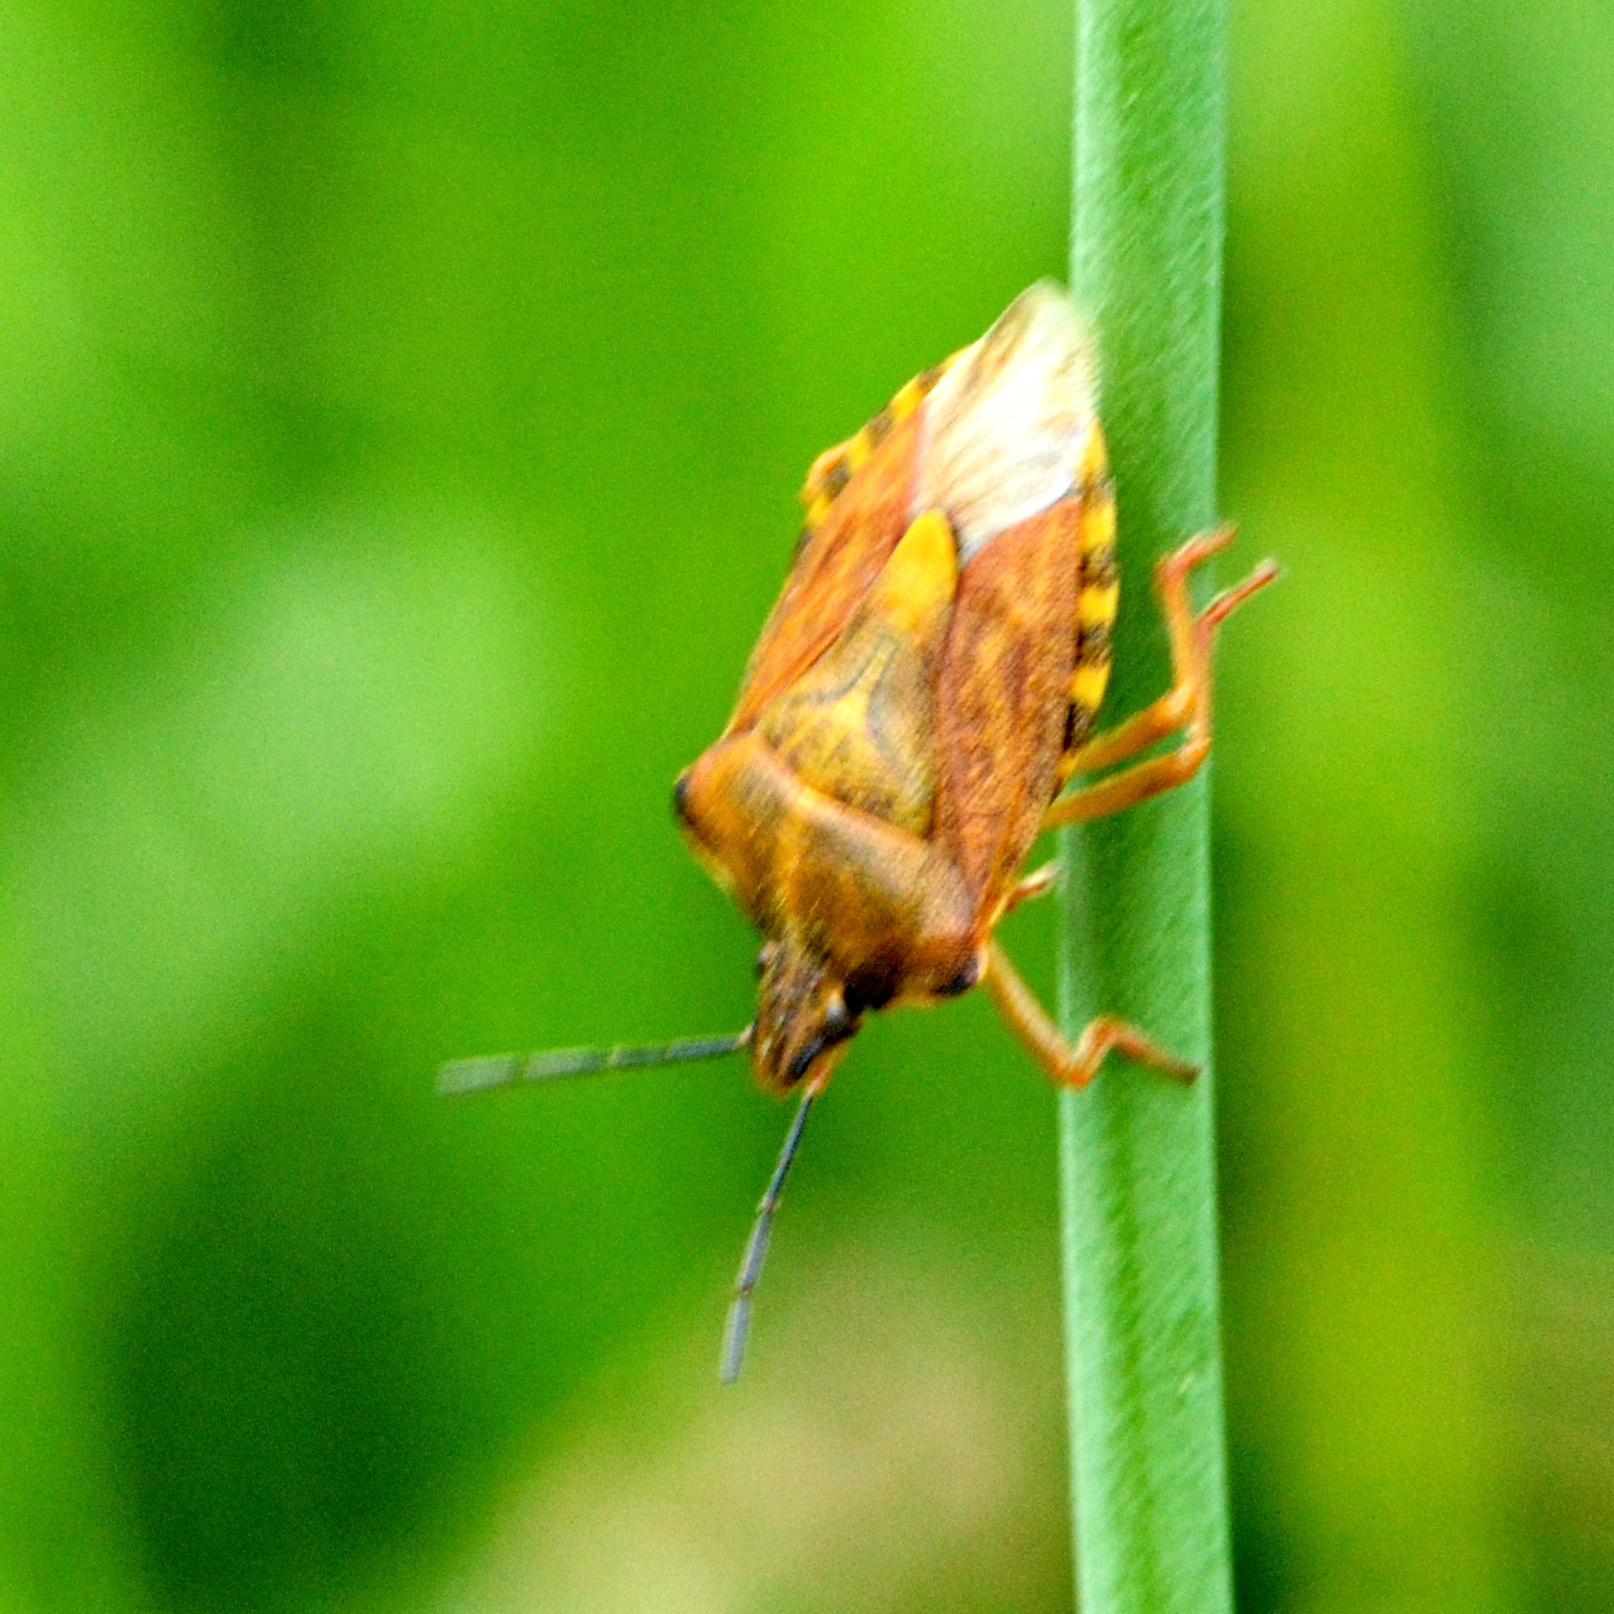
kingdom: Animalia
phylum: Arthropoda
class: Insecta
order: Hemiptera
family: Pentatomidae
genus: Carpocoris
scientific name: Carpocoris purpureipennis
